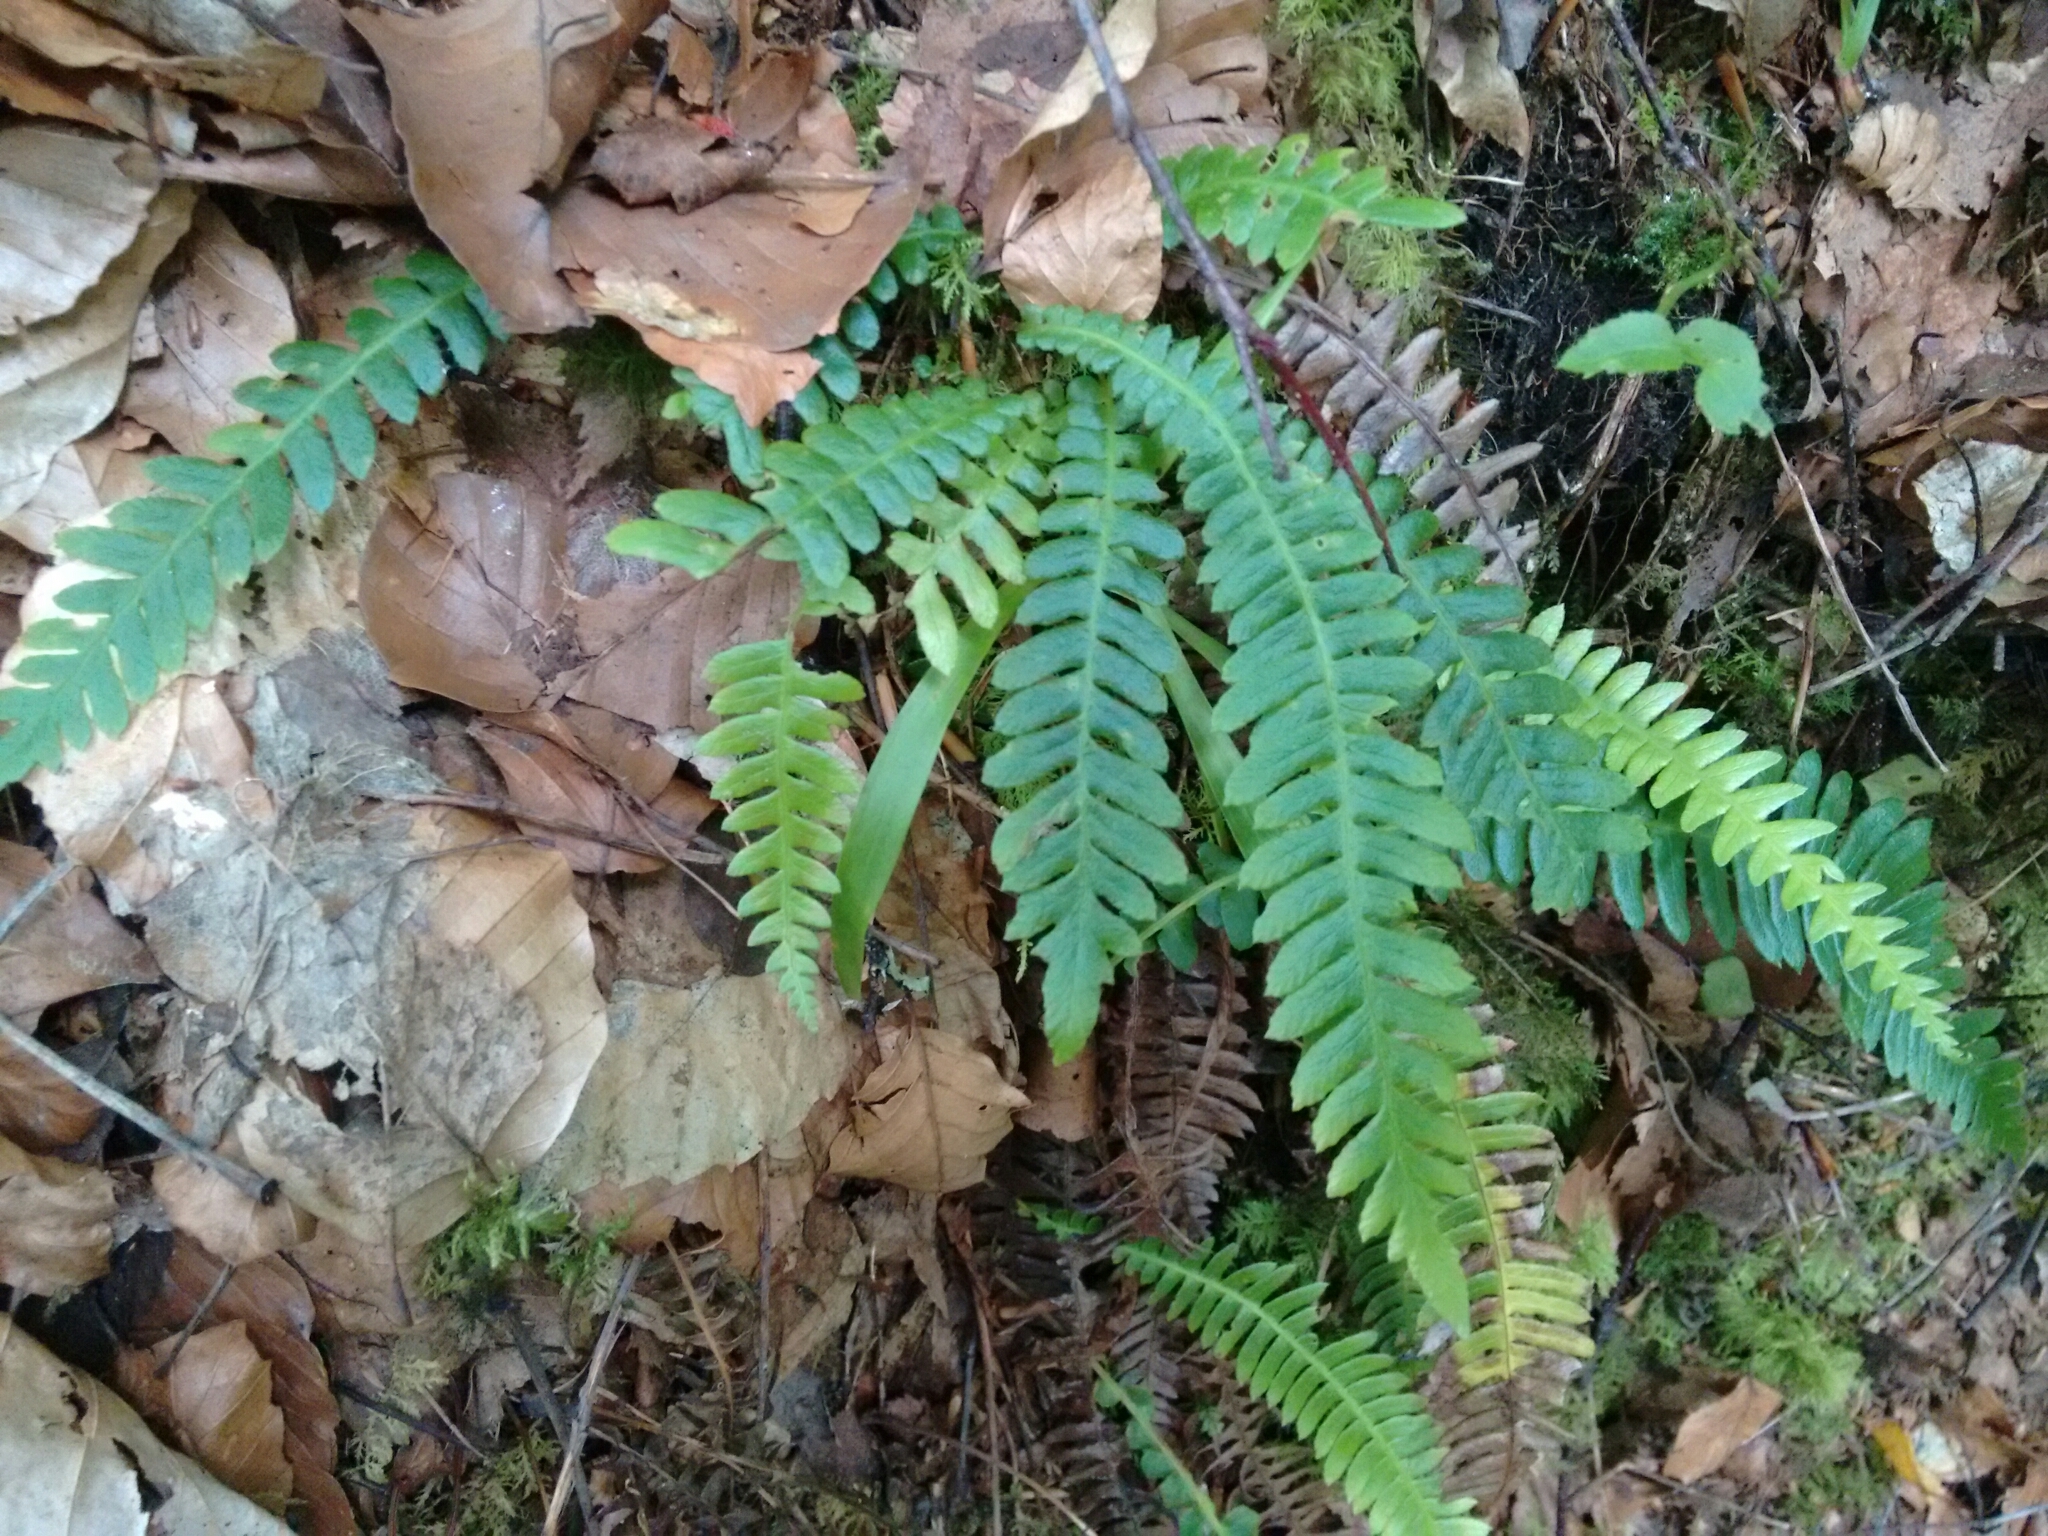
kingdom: Plantae
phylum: Tracheophyta
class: Polypodiopsida
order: Polypodiales
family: Blechnaceae
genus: Struthiopteris
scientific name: Struthiopteris spicant
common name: Deer fern
